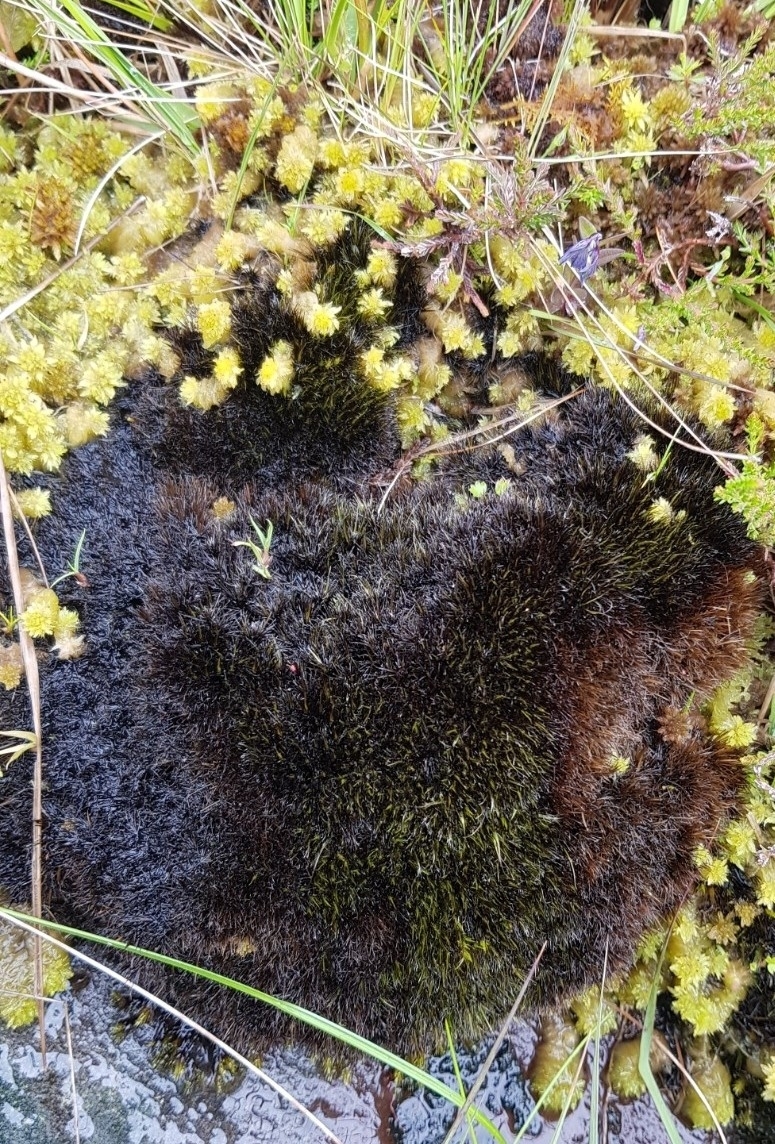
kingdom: Plantae
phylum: Bryophyta
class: Bryopsida
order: Dicranales
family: Leucobryaceae
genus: Campylopus
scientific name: Campylopus atrovirens
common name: Bristly swan-neck moss
